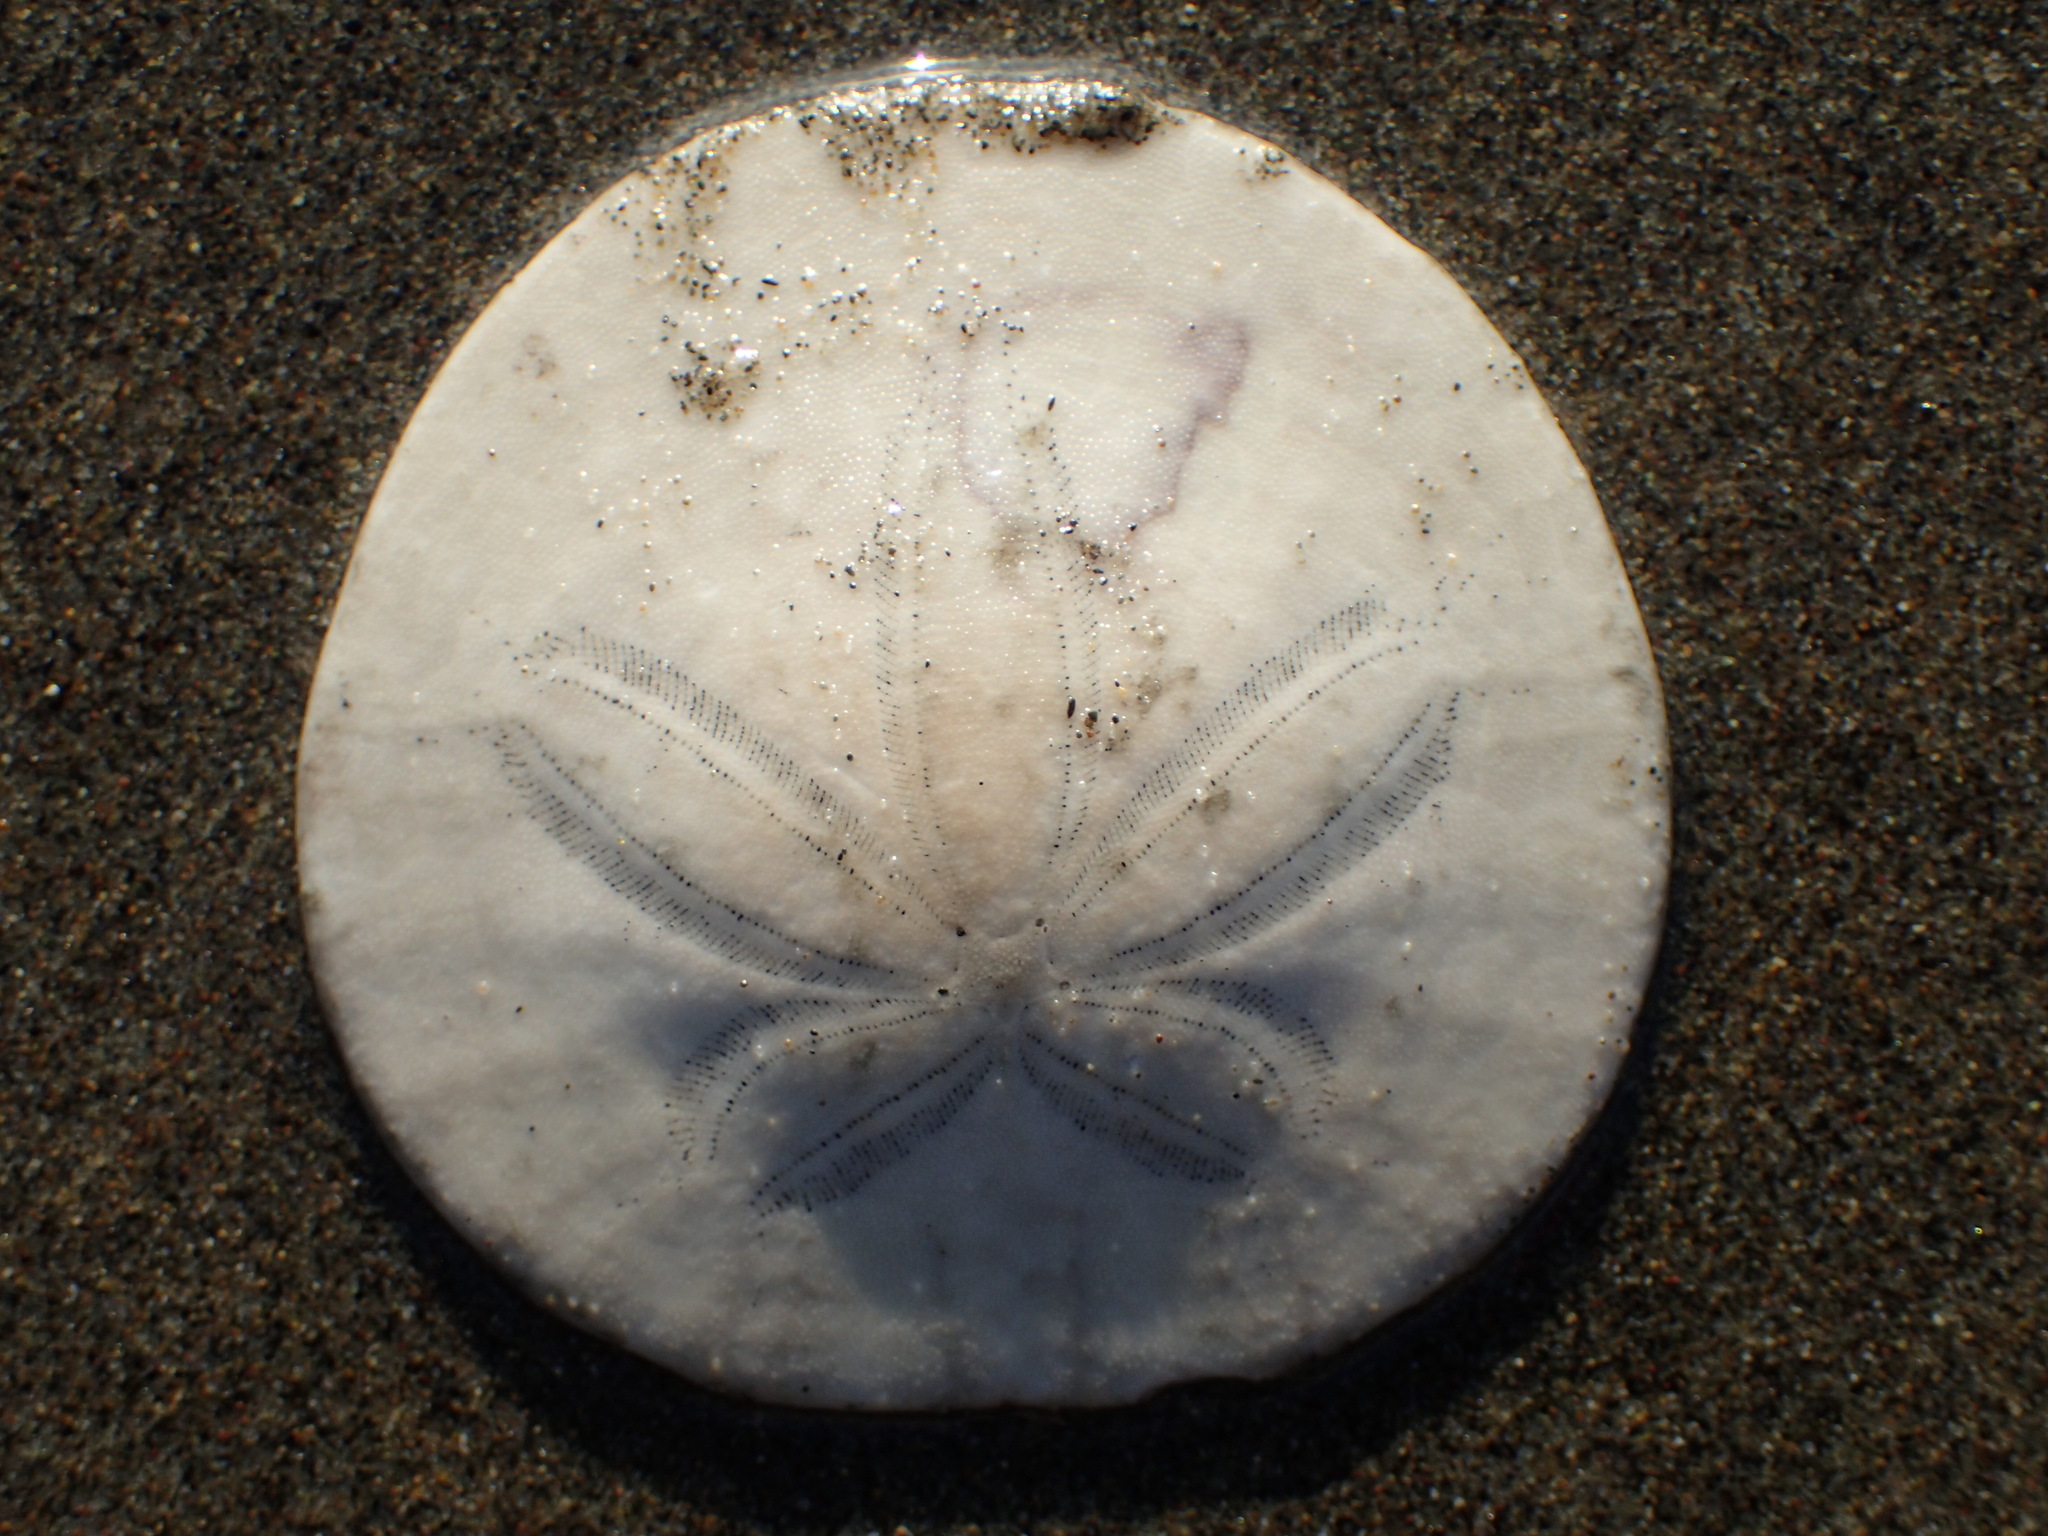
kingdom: Animalia
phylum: Echinodermata
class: Echinoidea
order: Echinolampadacea
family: Dendrasteridae
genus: Dendraster
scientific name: Dendraster excentricus
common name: Eccentric sand dollar sea urchin
